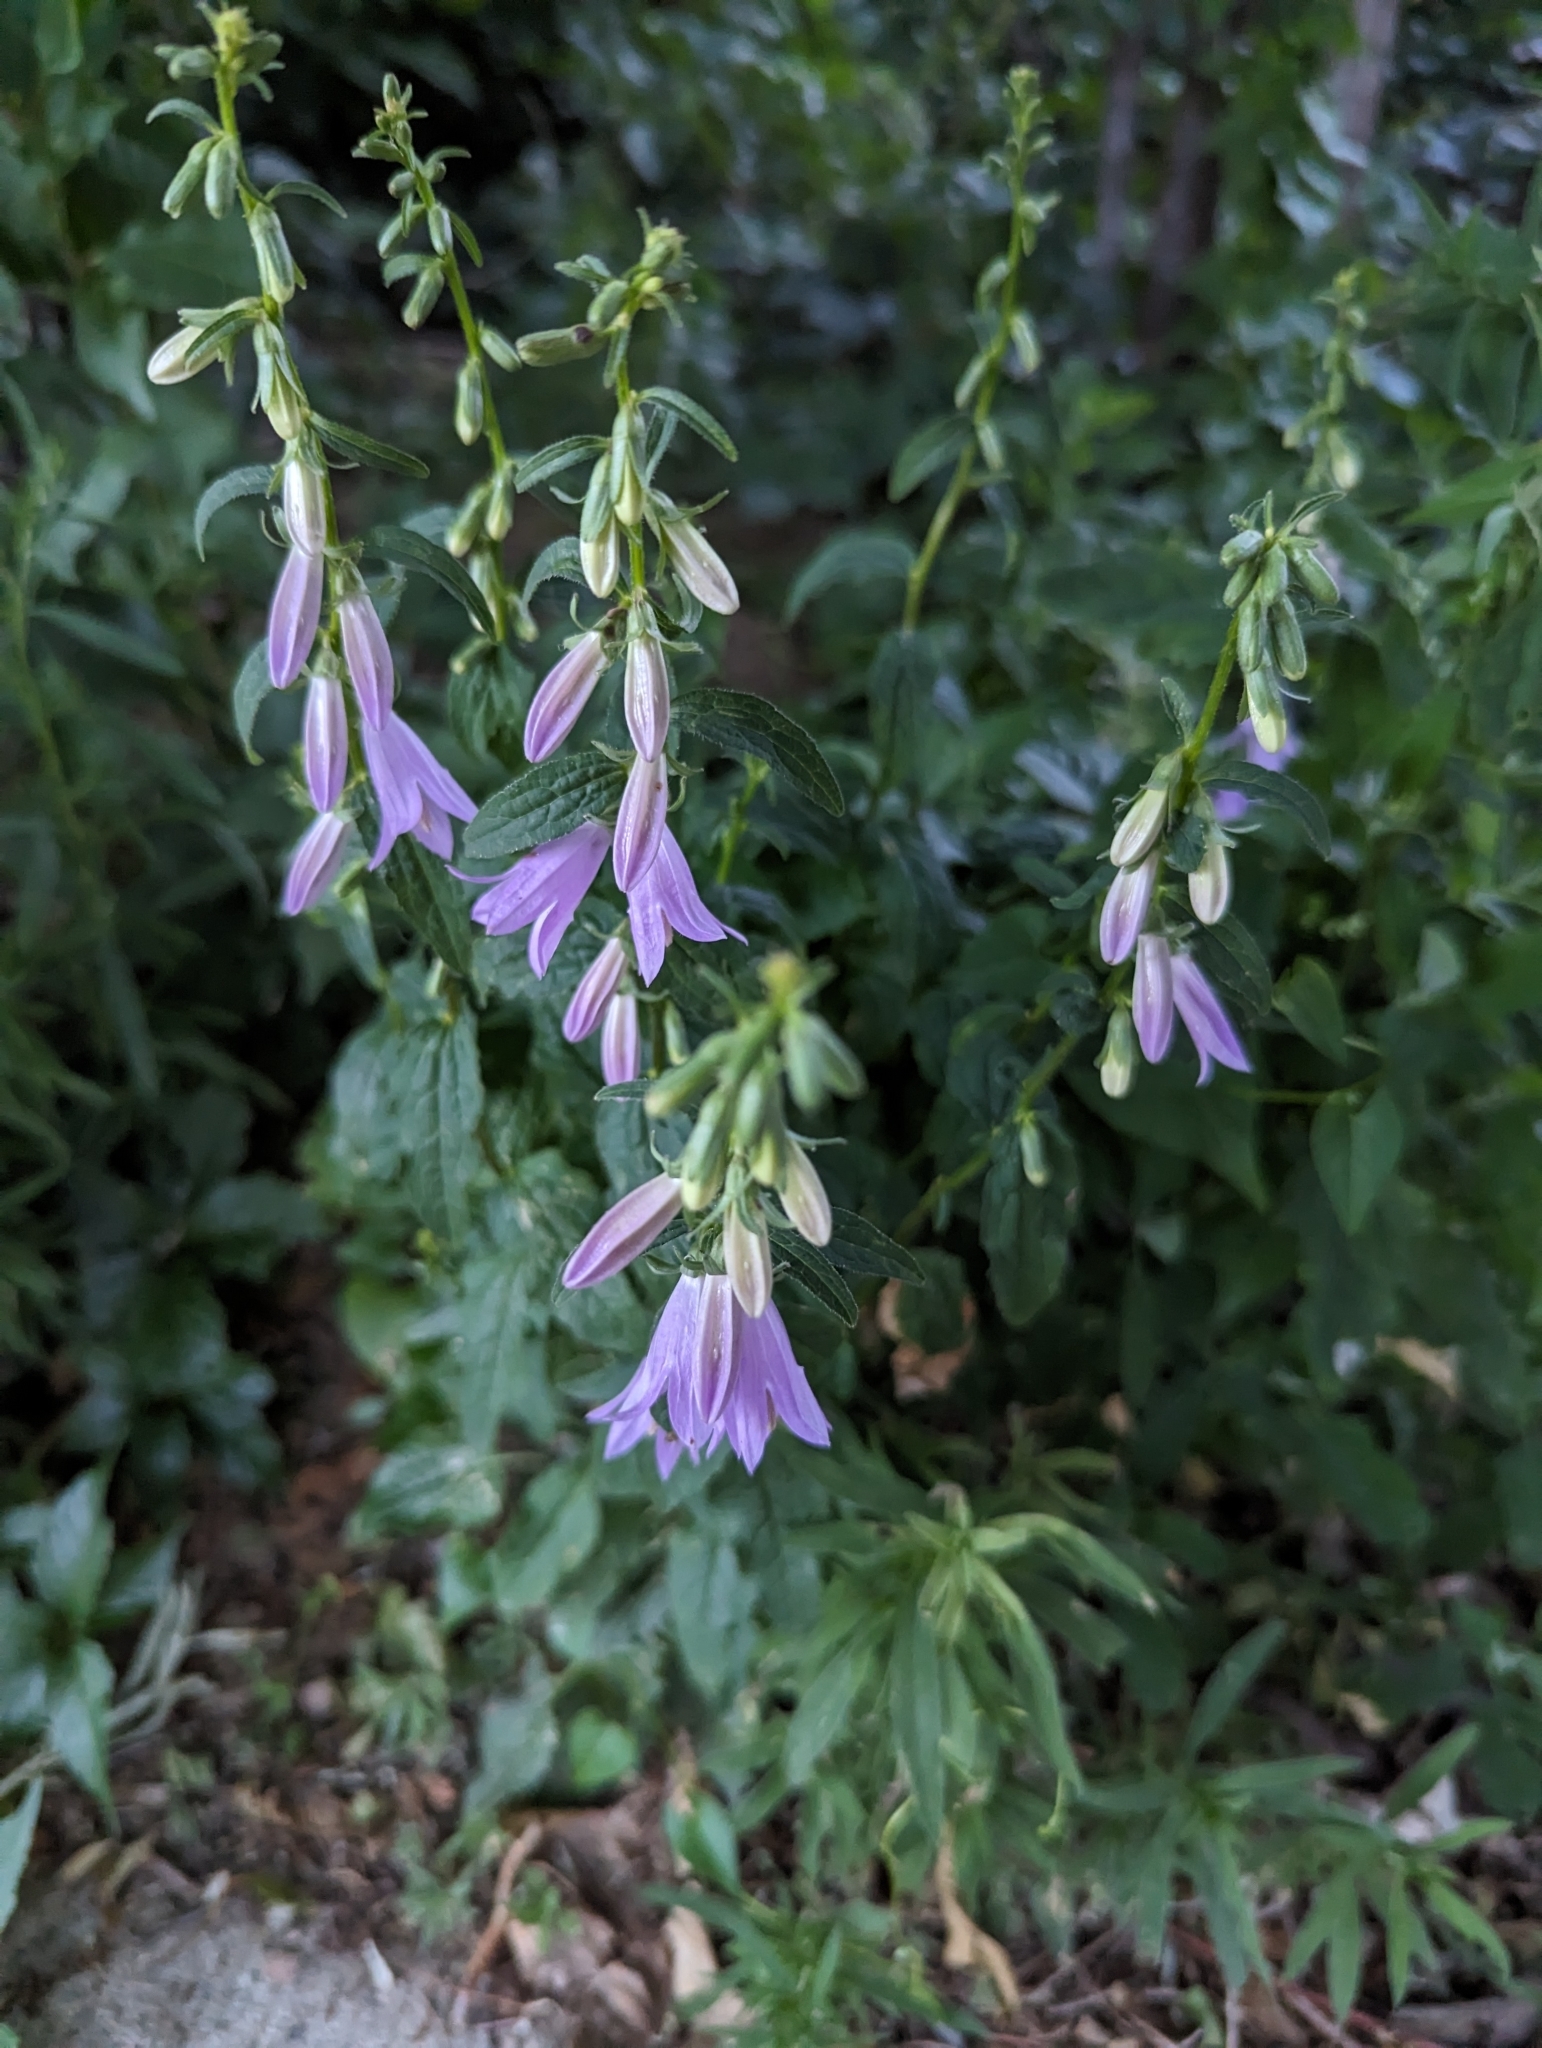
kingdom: Plantae
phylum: Tracheophyta
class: Magnoliopsida
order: Asterales
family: Campanulaceae
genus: Campanula
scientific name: Campanula rapunculoides
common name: Creeping bellflower
